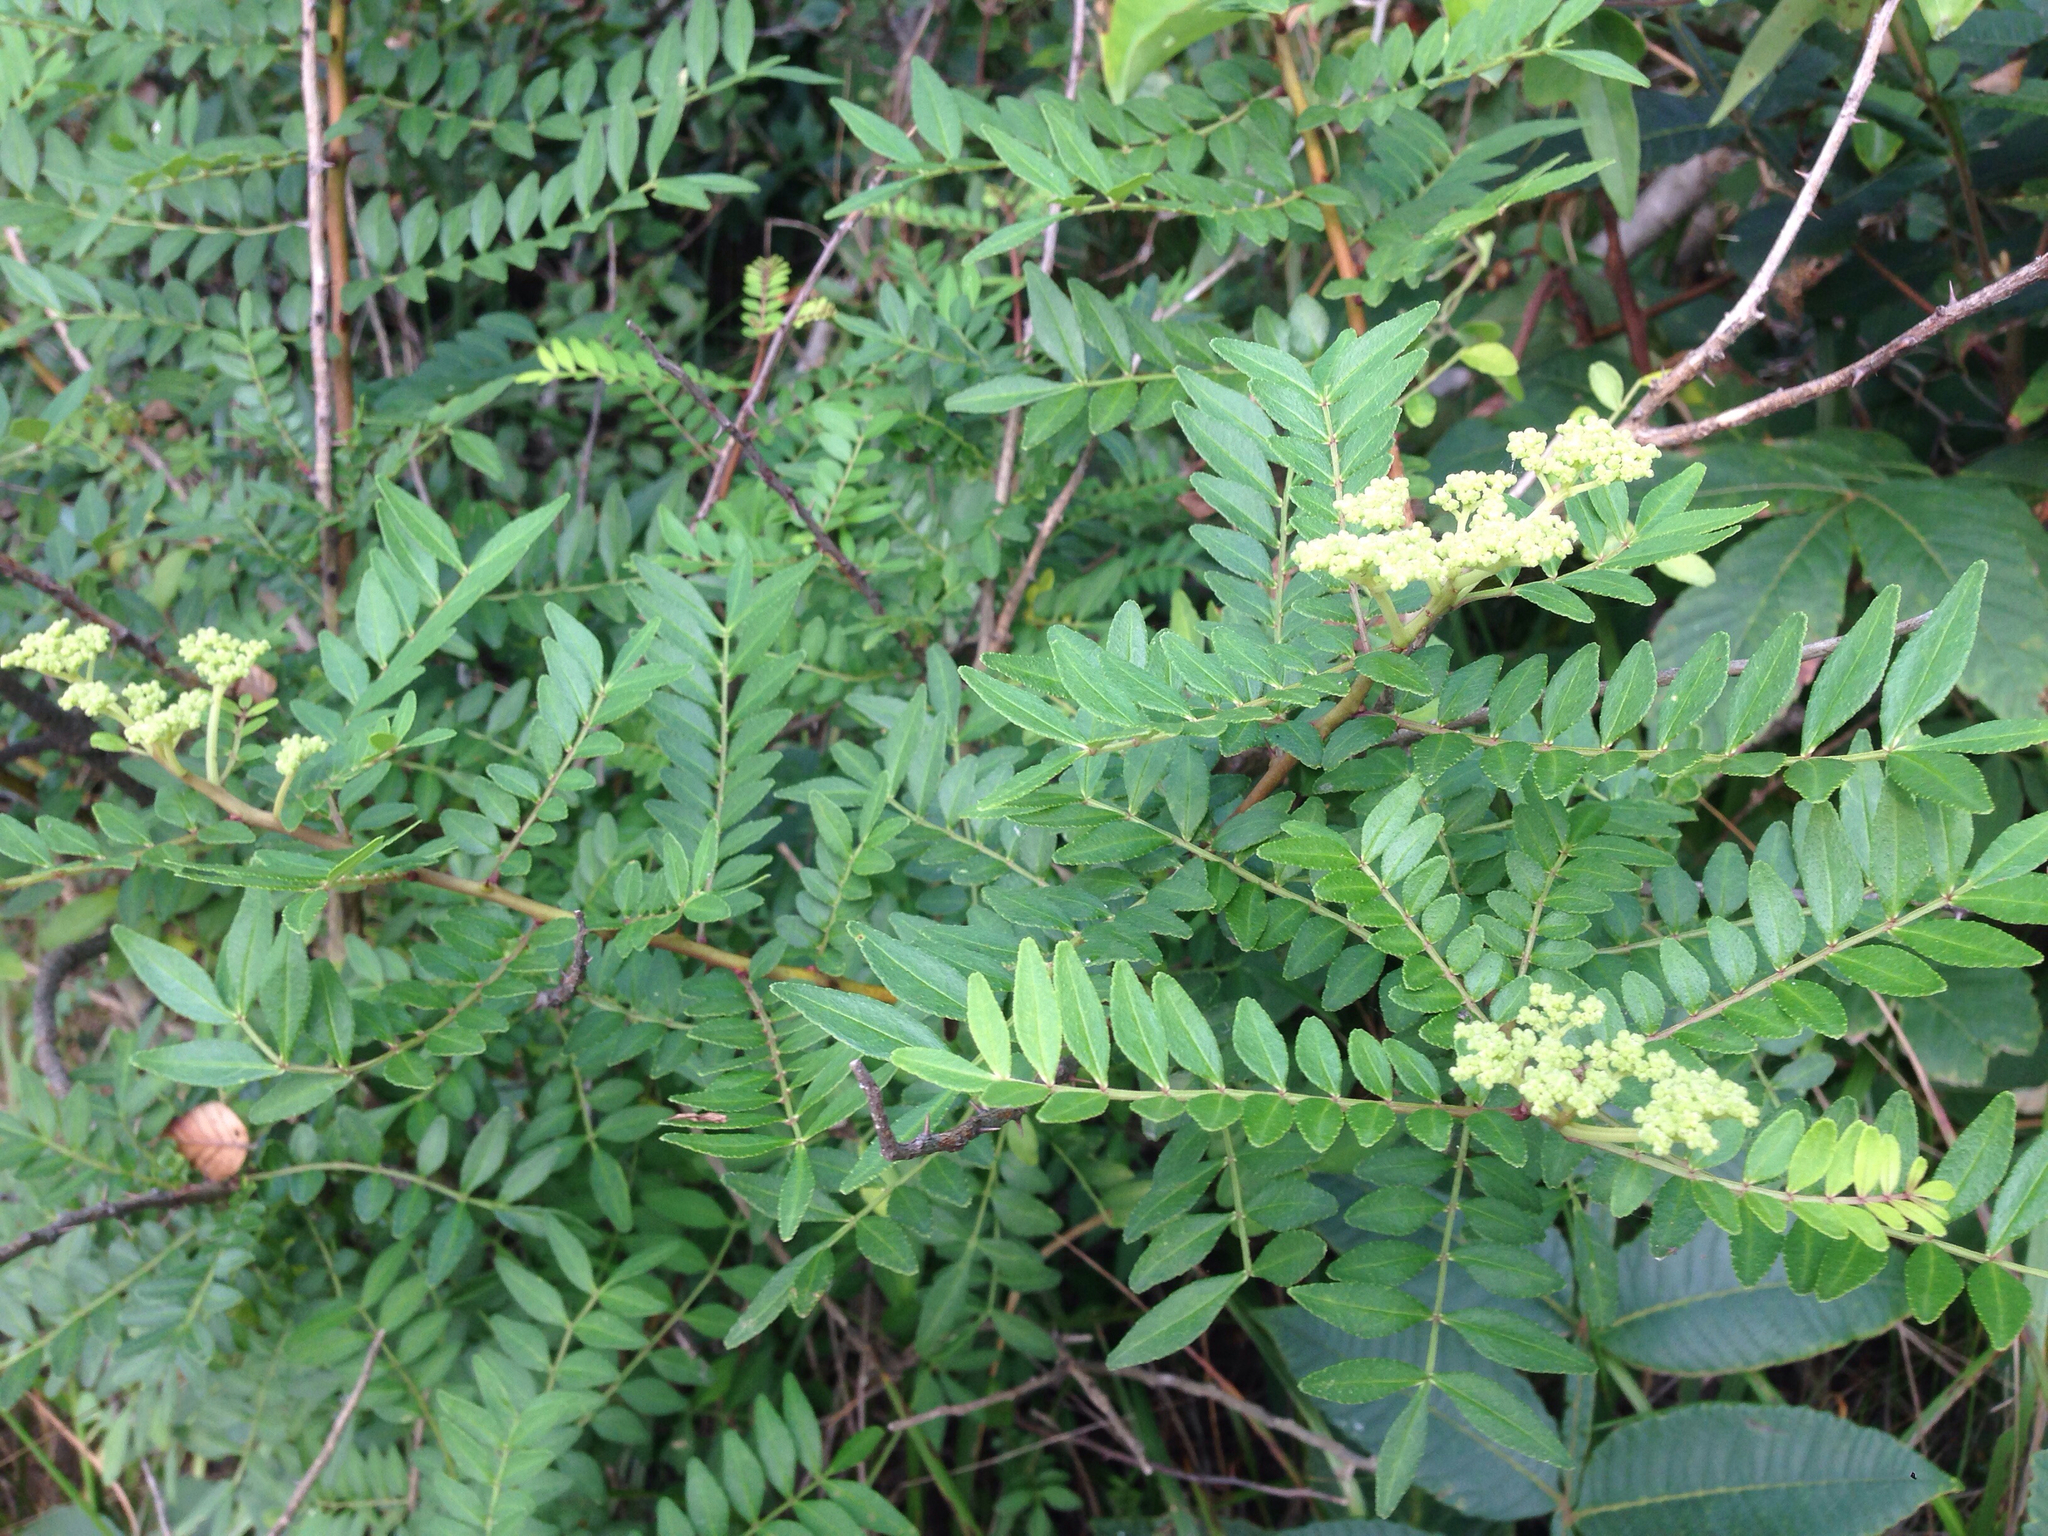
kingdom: Plantae
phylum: Tracheophyta
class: Magnoliopsida
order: Sapindales
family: Rutaceae
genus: Zanthoxylum
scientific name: Zanthoxylum schinifolium
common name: Sichuan-pepper
